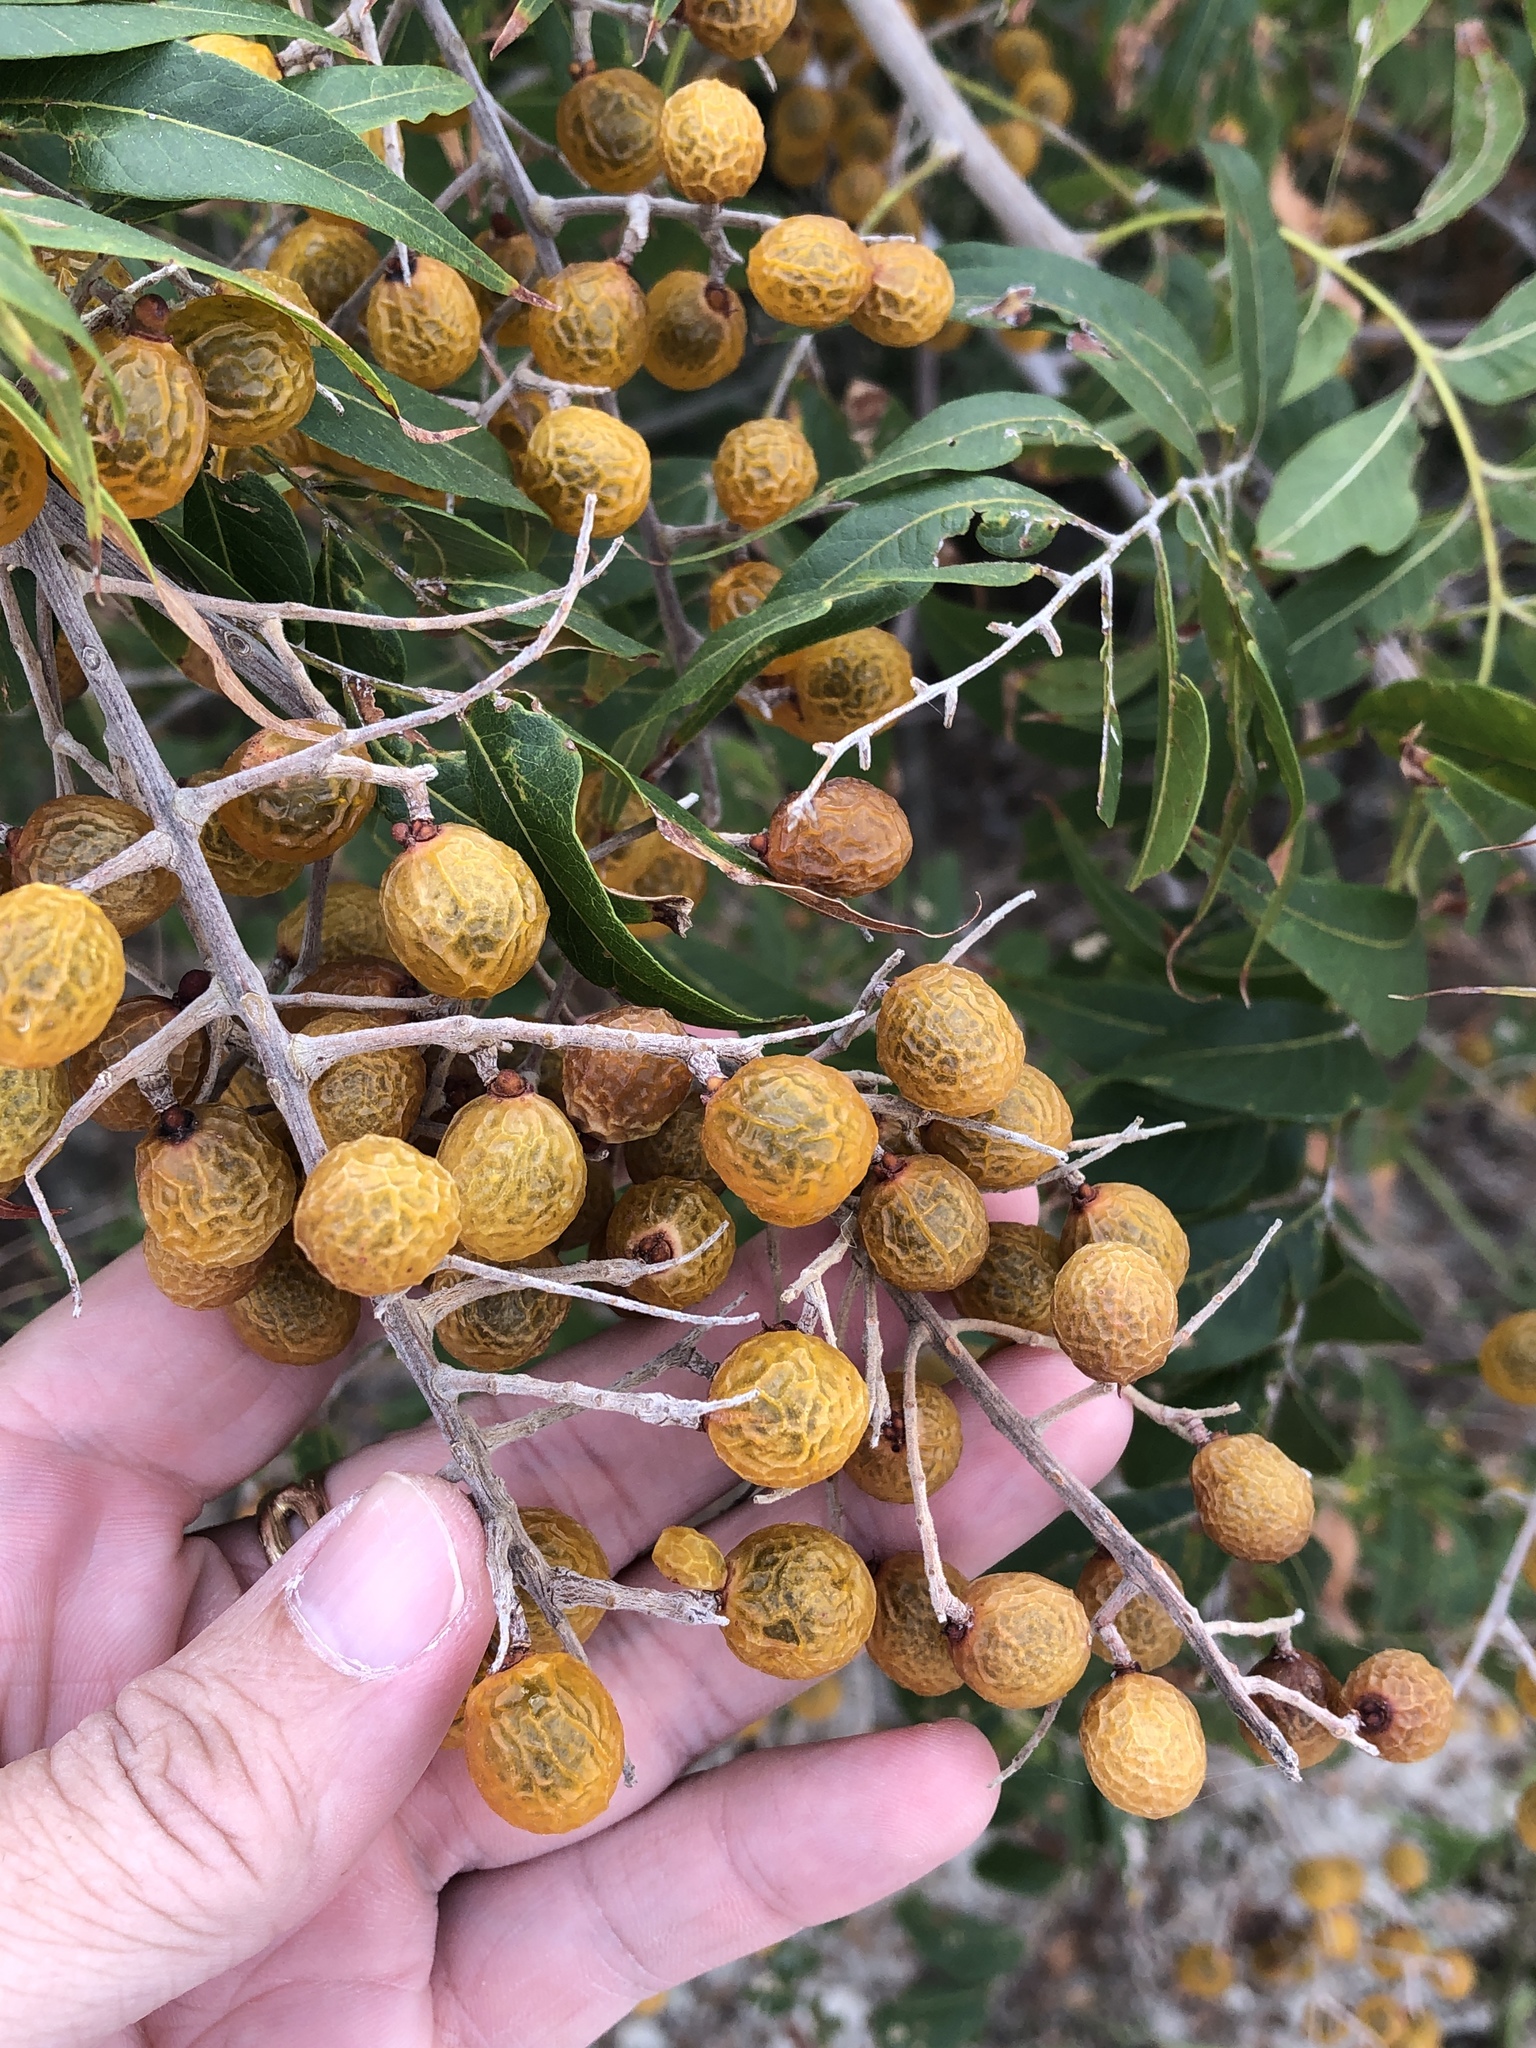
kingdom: Plantae
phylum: Tracheophyta
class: Magnoliopsida
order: Sapindales
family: Sapindaceae
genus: Sapindus
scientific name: Sapindus drummondii
